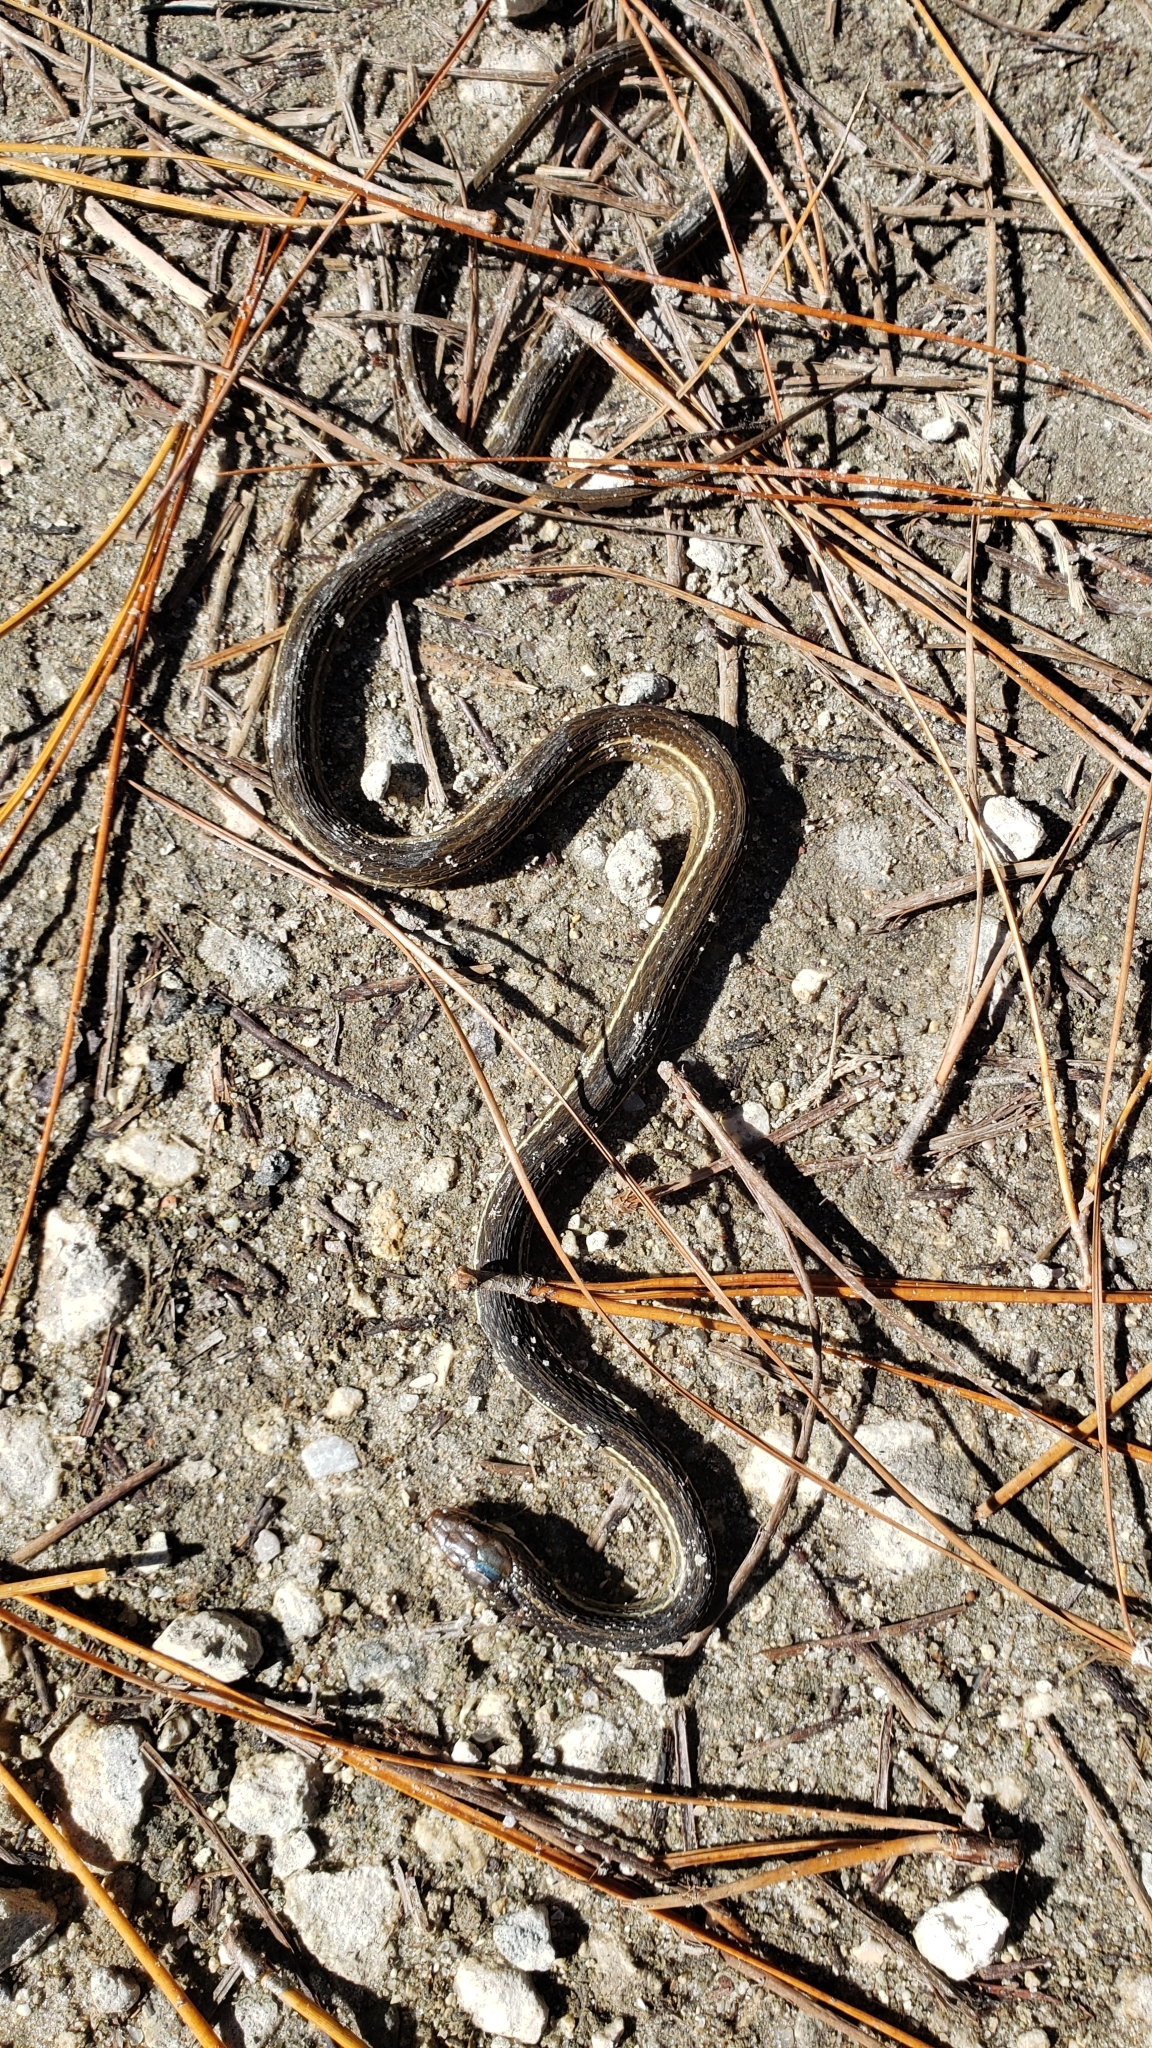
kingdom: Animalia
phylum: Chordata
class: Squamata
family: Colubridae
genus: Thamnophis
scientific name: Thamnophis saurita
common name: Eastern ribbonsnake
